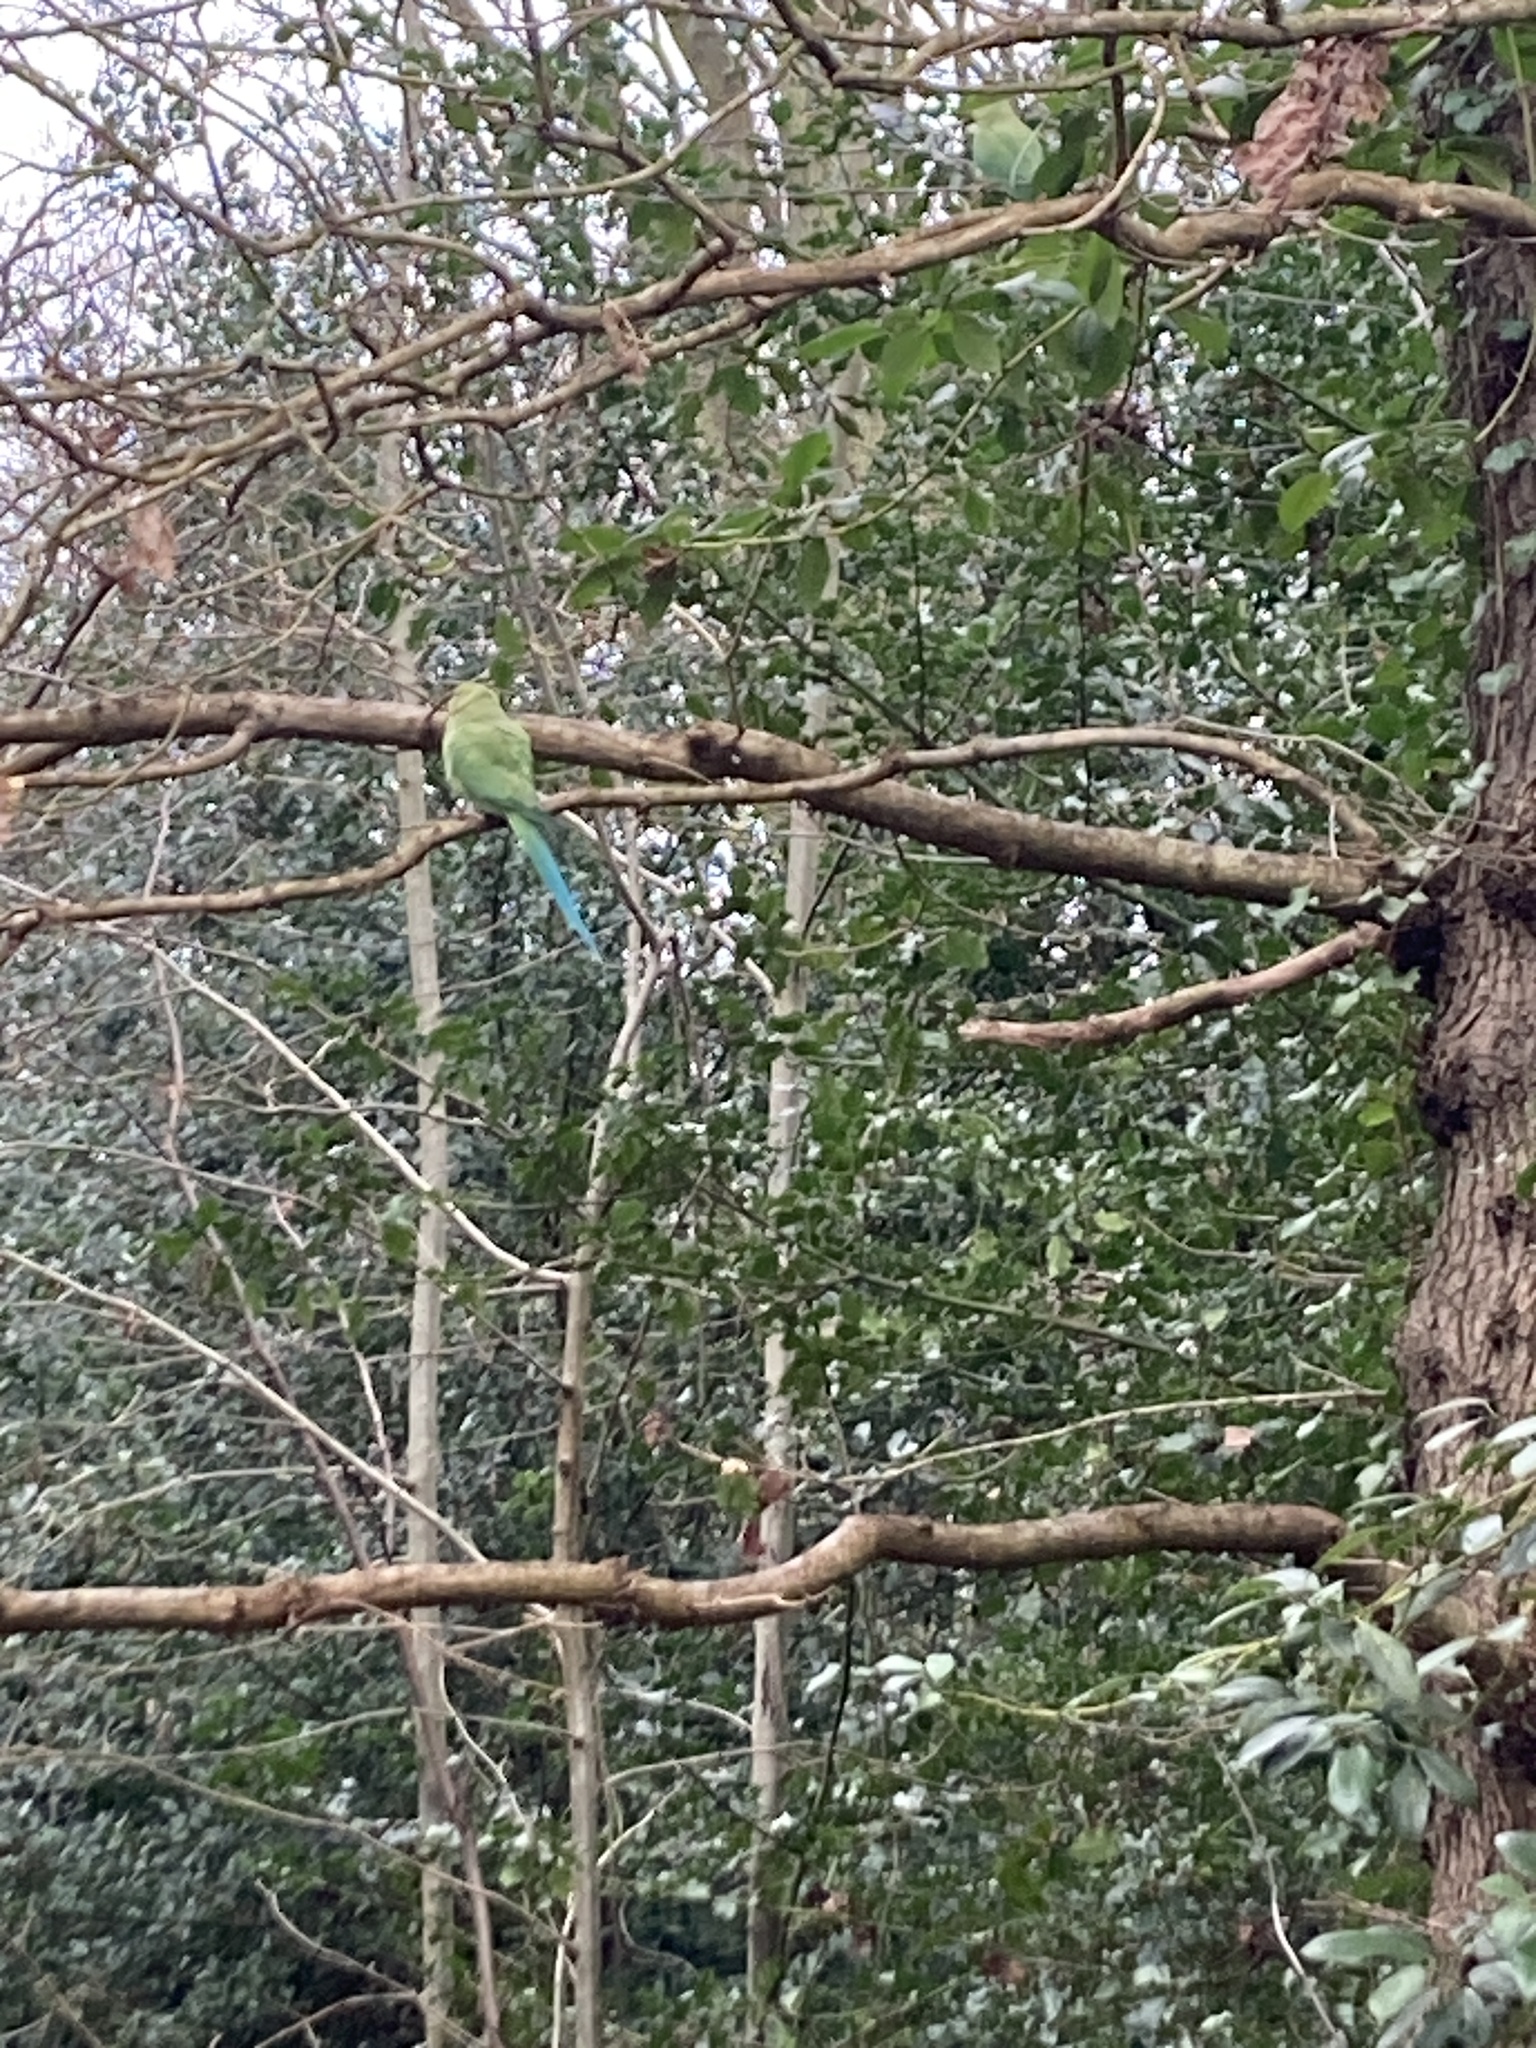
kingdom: Animalia
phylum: Chordata
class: Aves
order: Psittaciformes
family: Psittacidae
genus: Psittacula
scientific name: Psittacula krameri
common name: Rose-ringed parakeet
